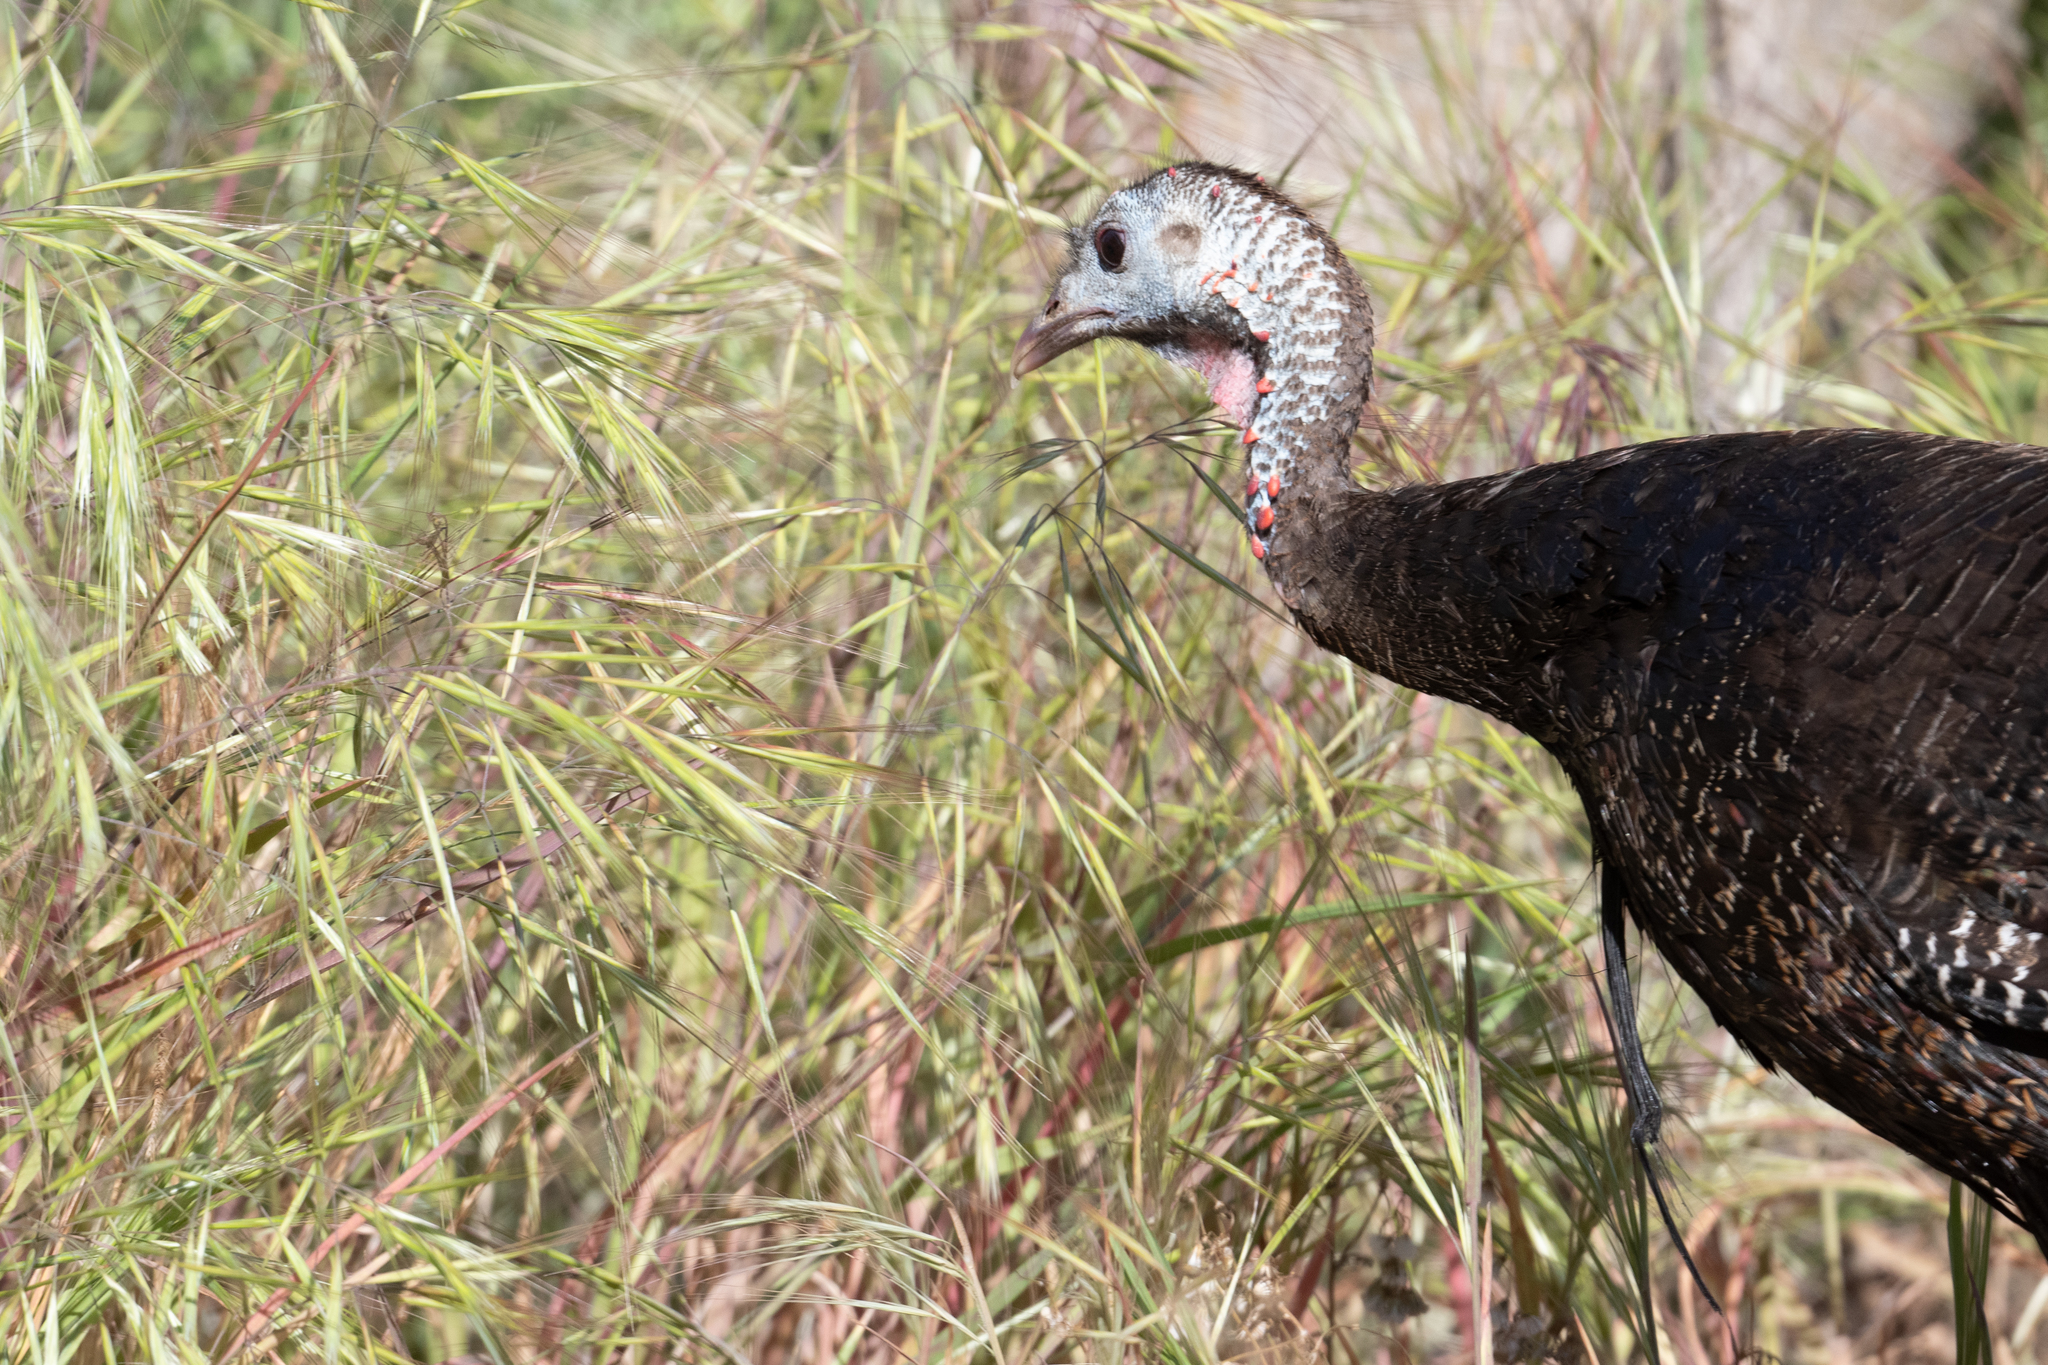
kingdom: Animalia
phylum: Chordata
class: Aves
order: Galliformes
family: Phasianidae
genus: Meleagris
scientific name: Meleagris gallopavo
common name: Wild turkey
